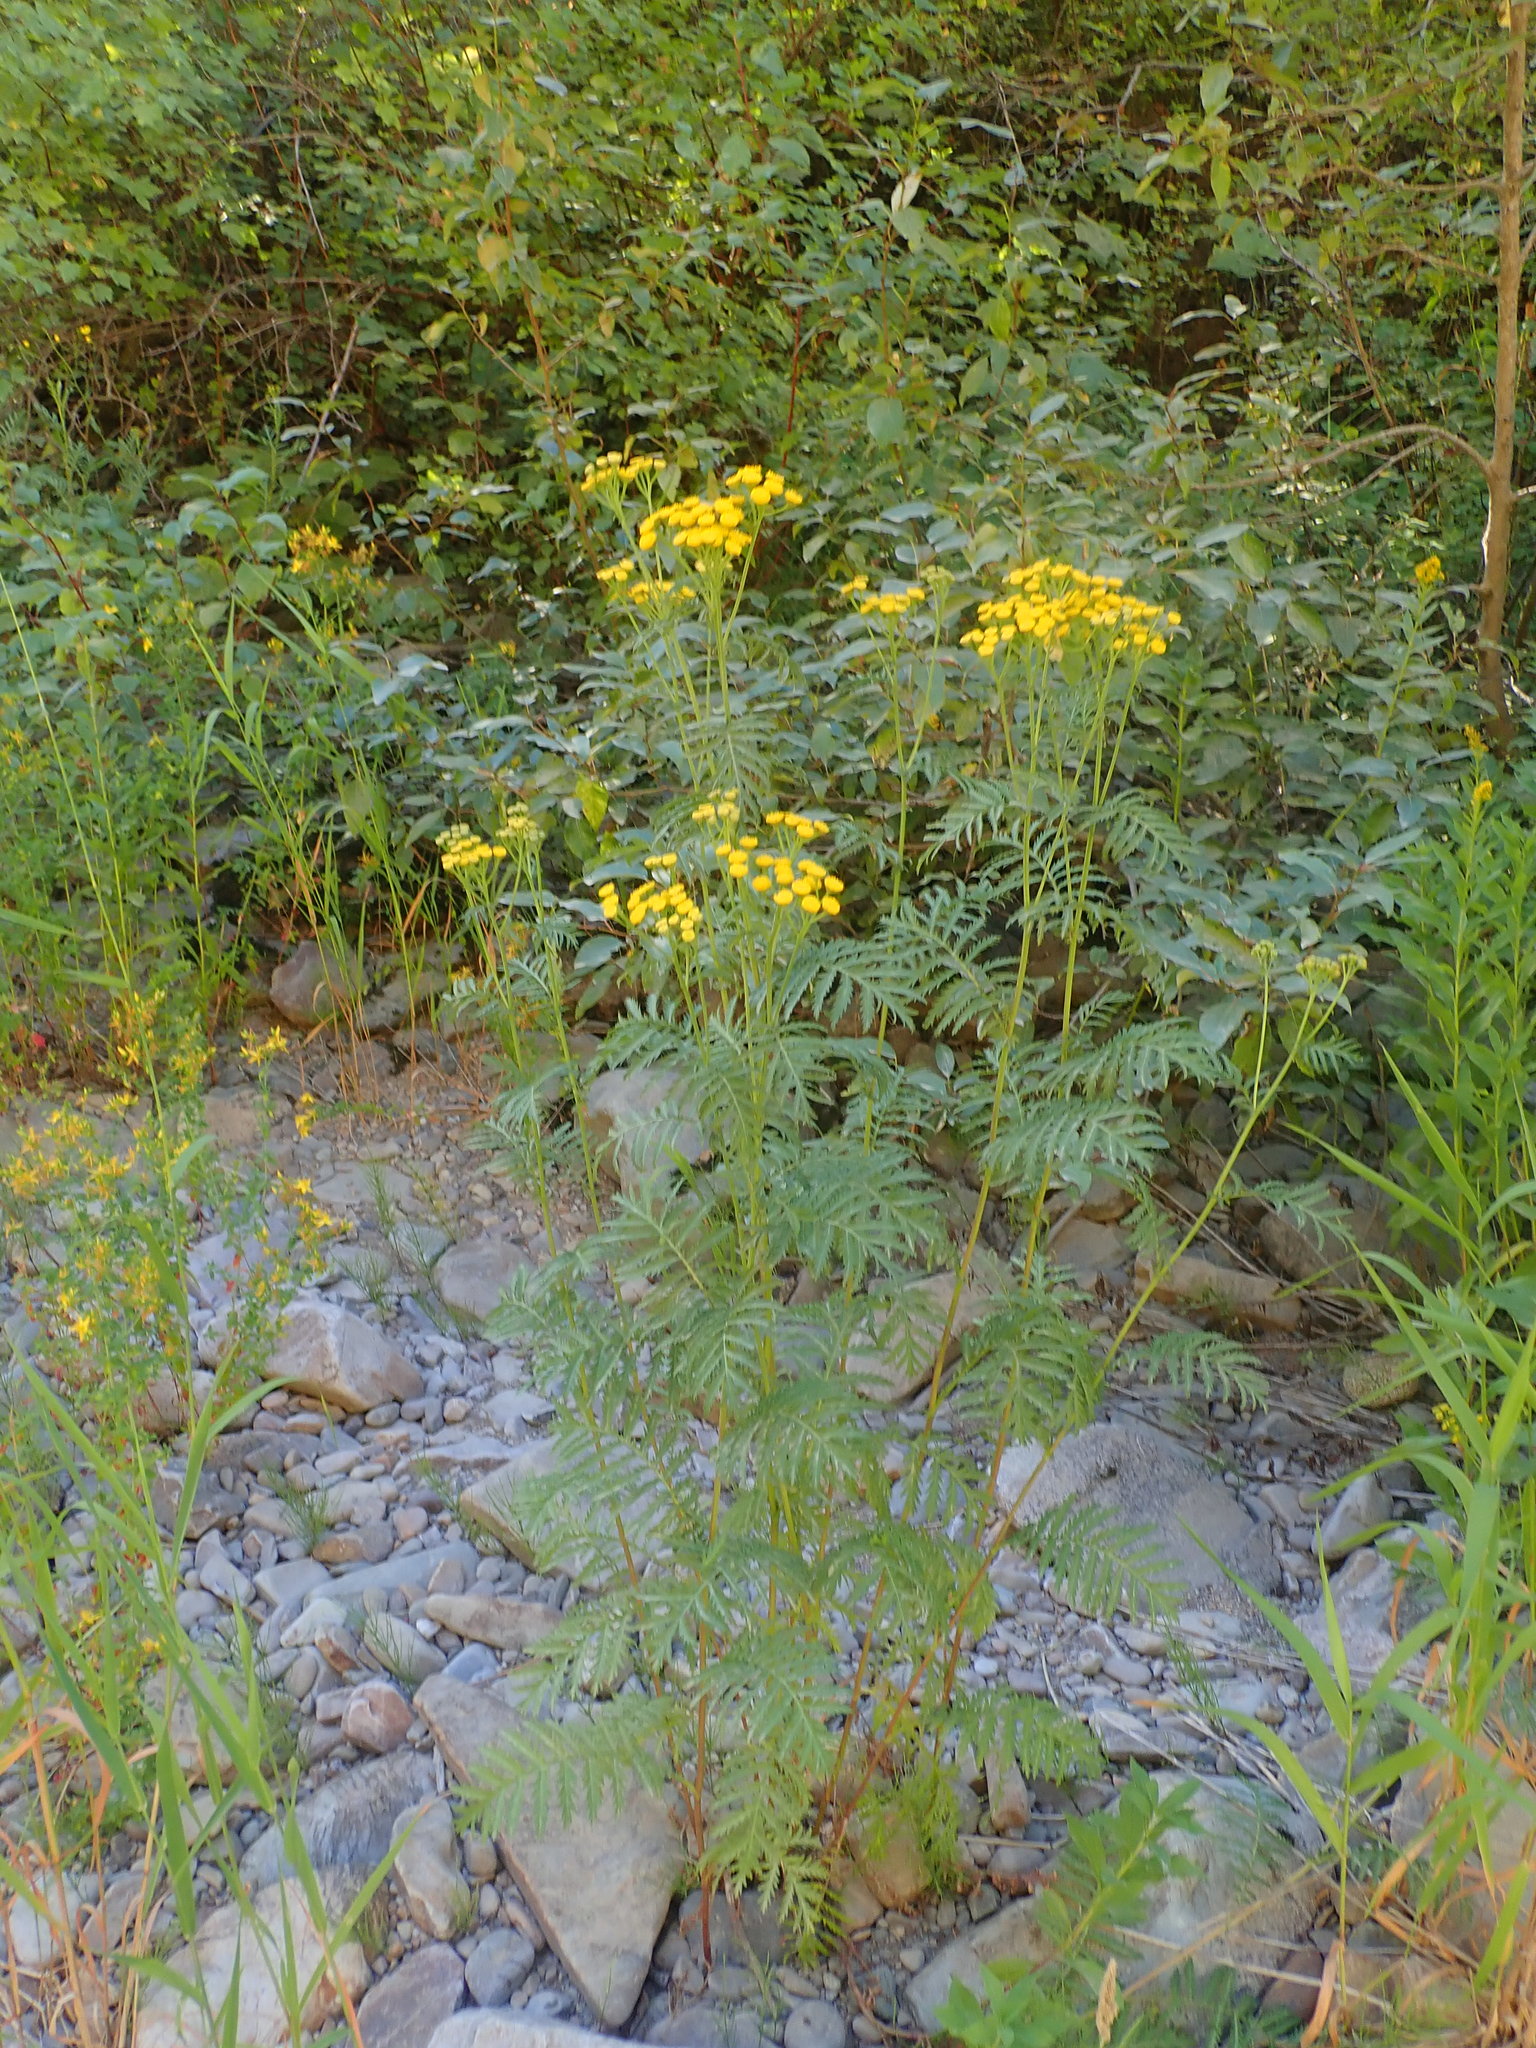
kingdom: Plantae
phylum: Tracheophyta
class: Magnoliopsida
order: Asterales
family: Asteraceae
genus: Tanacetum
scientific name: Tanacetum vulgare
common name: Common tansy
